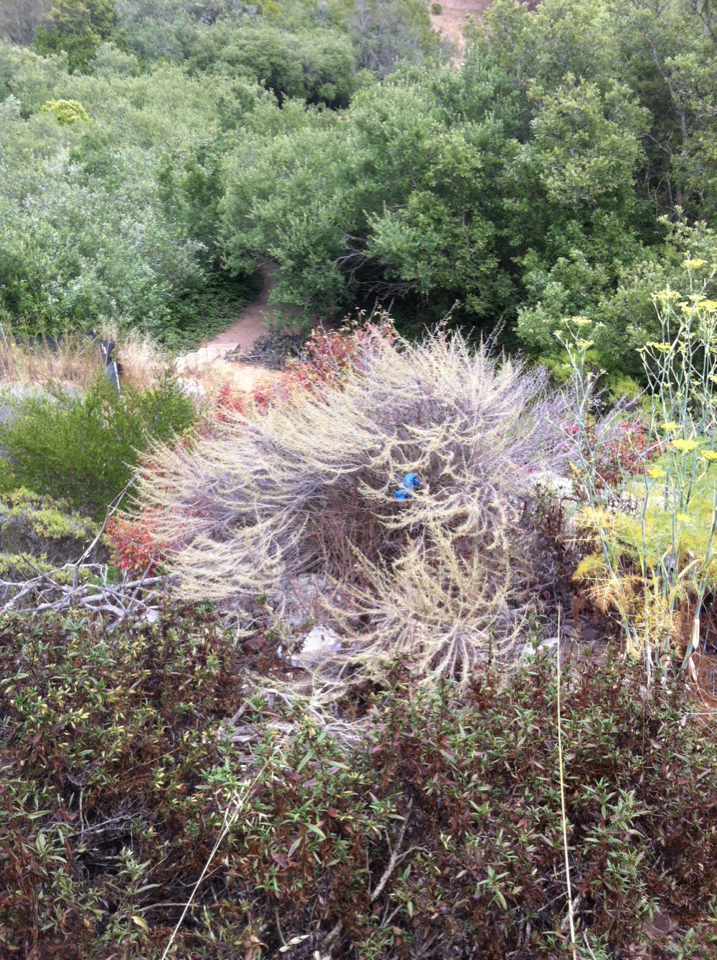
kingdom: Plantae
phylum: Tracheophyta
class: Magnoliopsida
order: Asterales
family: Asteraceae
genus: Artemisia
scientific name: Artemisia californica
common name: California sagebrush
